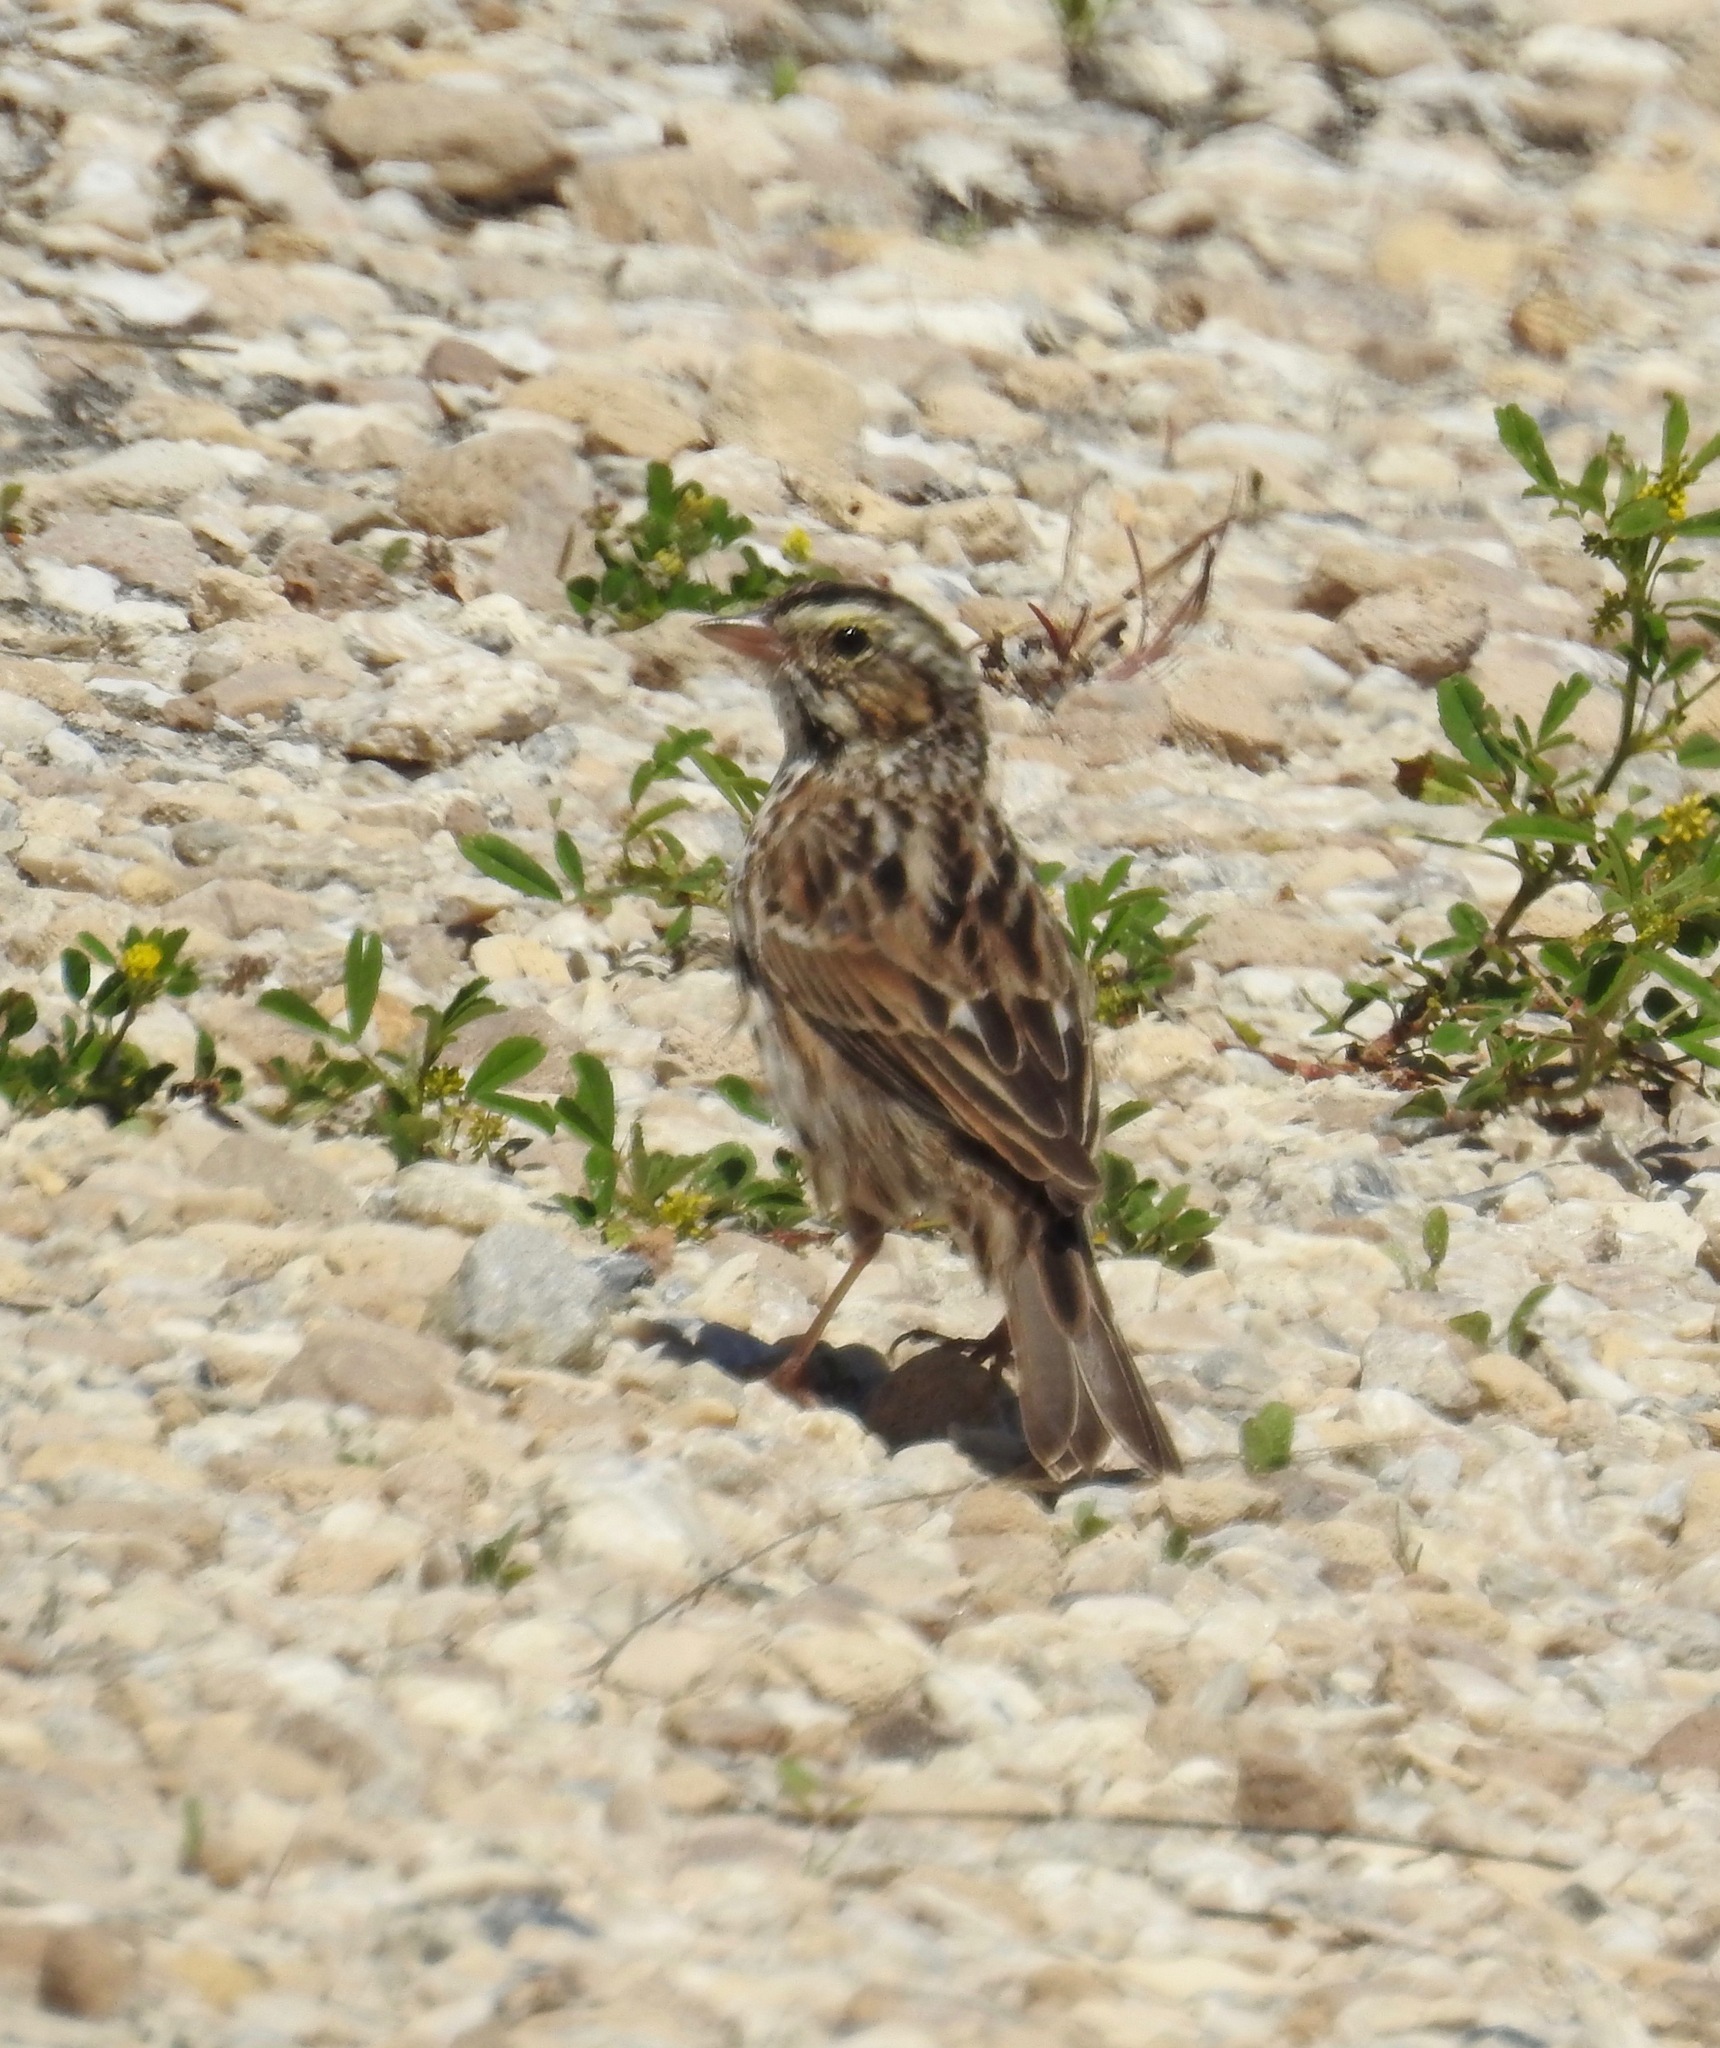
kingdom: Animalia
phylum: Chordata
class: Aves
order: Passeriformes
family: Passerellidae
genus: Passerculus
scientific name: Passerculus sandwichensis
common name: Savannah sparrow
